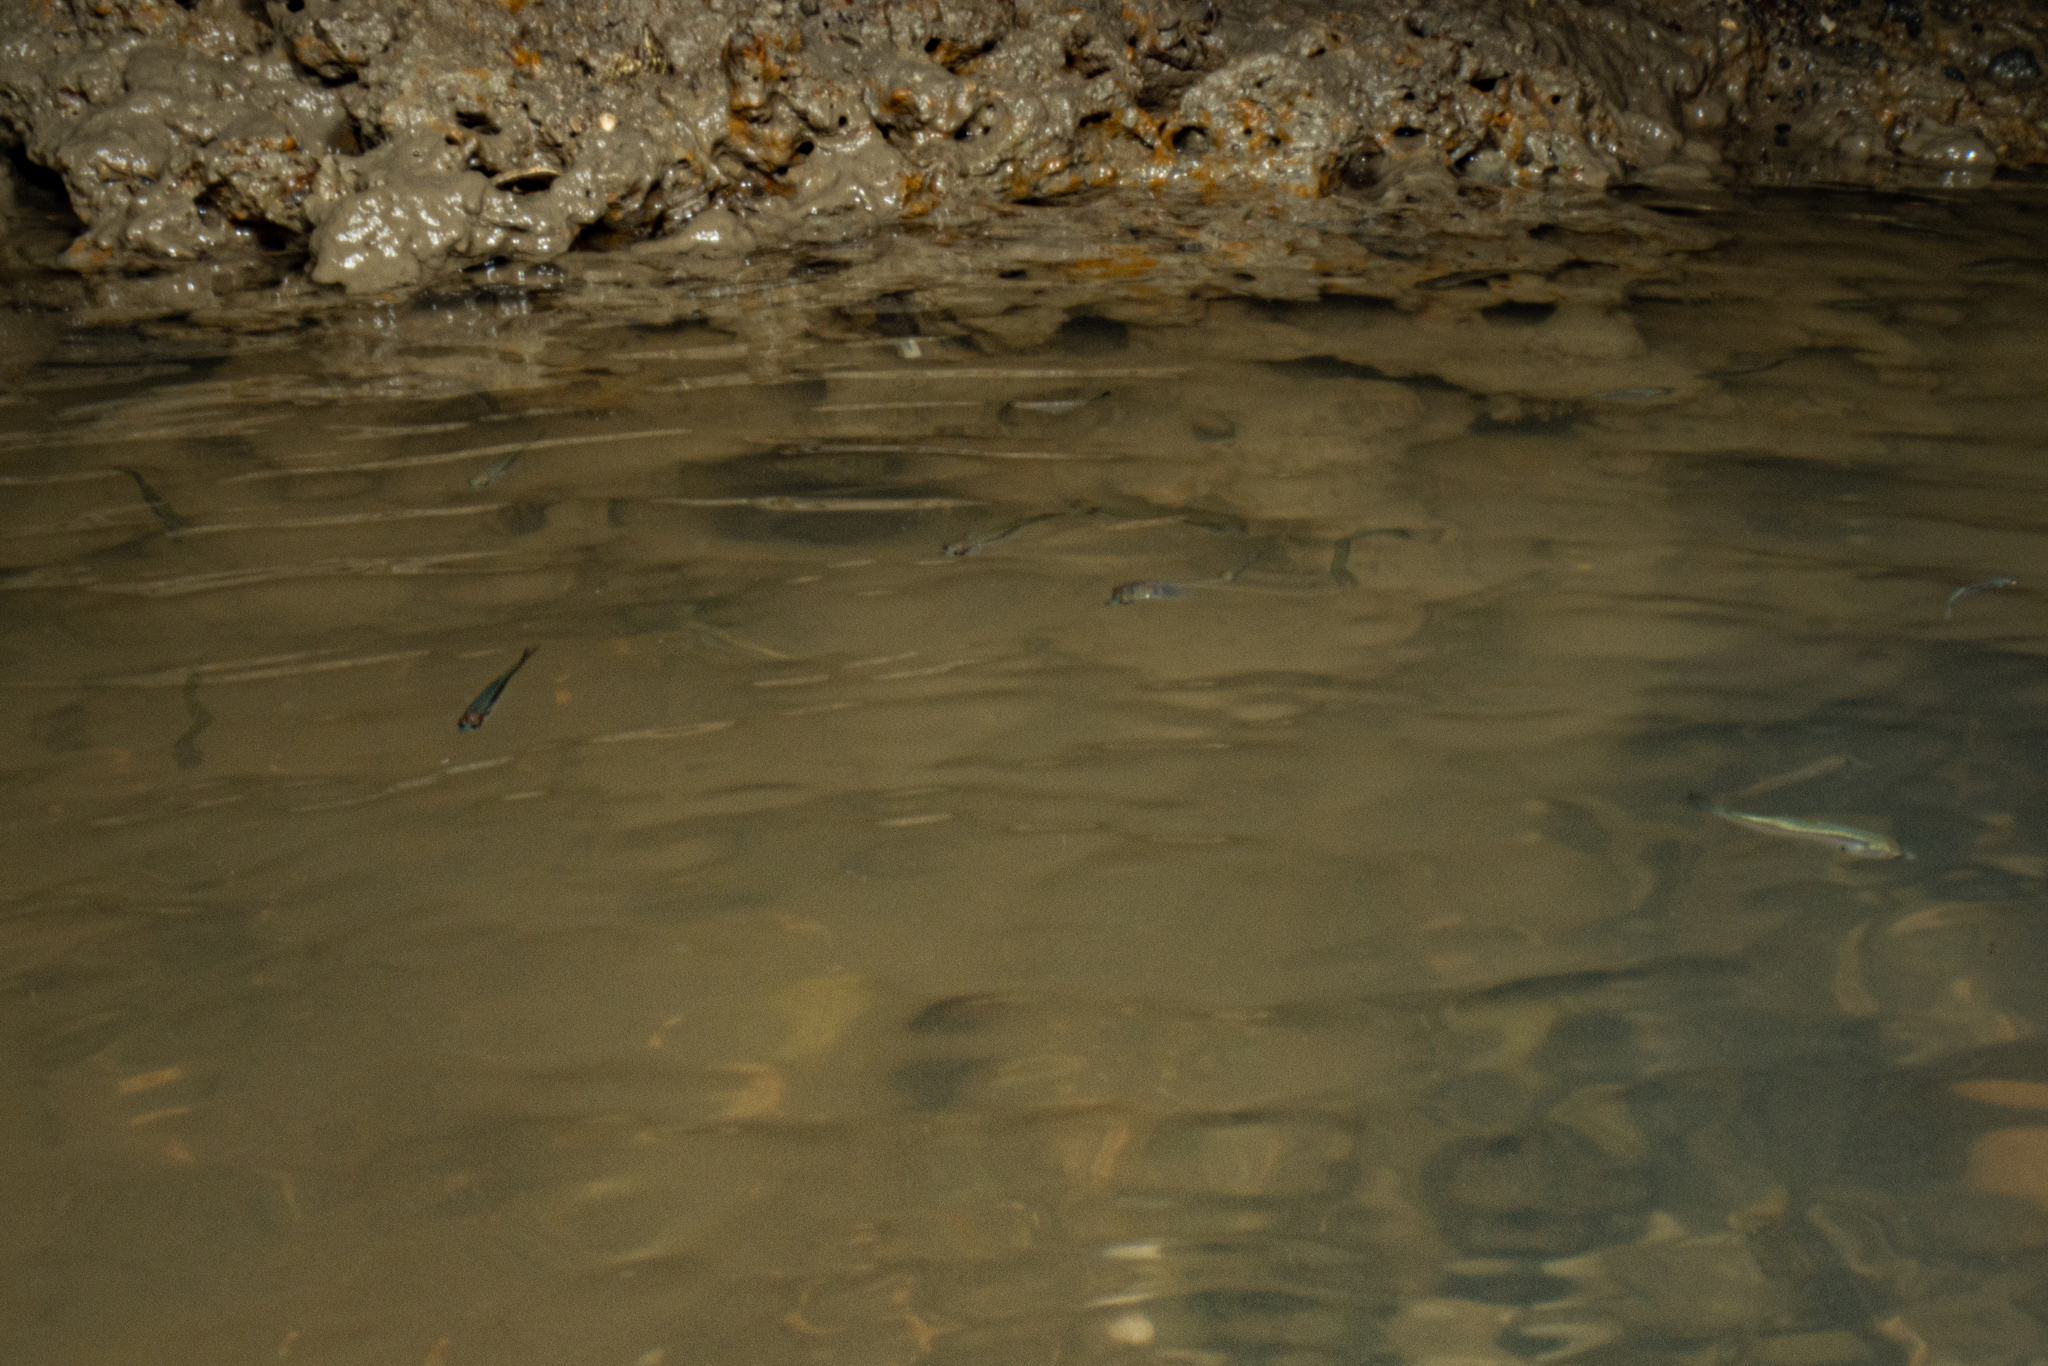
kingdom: Animalia
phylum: Chordata
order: Mugiliformes
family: Mugilidae
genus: Aldrichetta
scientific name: Aldrichetta forsteri
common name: Yellow-eye mullet
